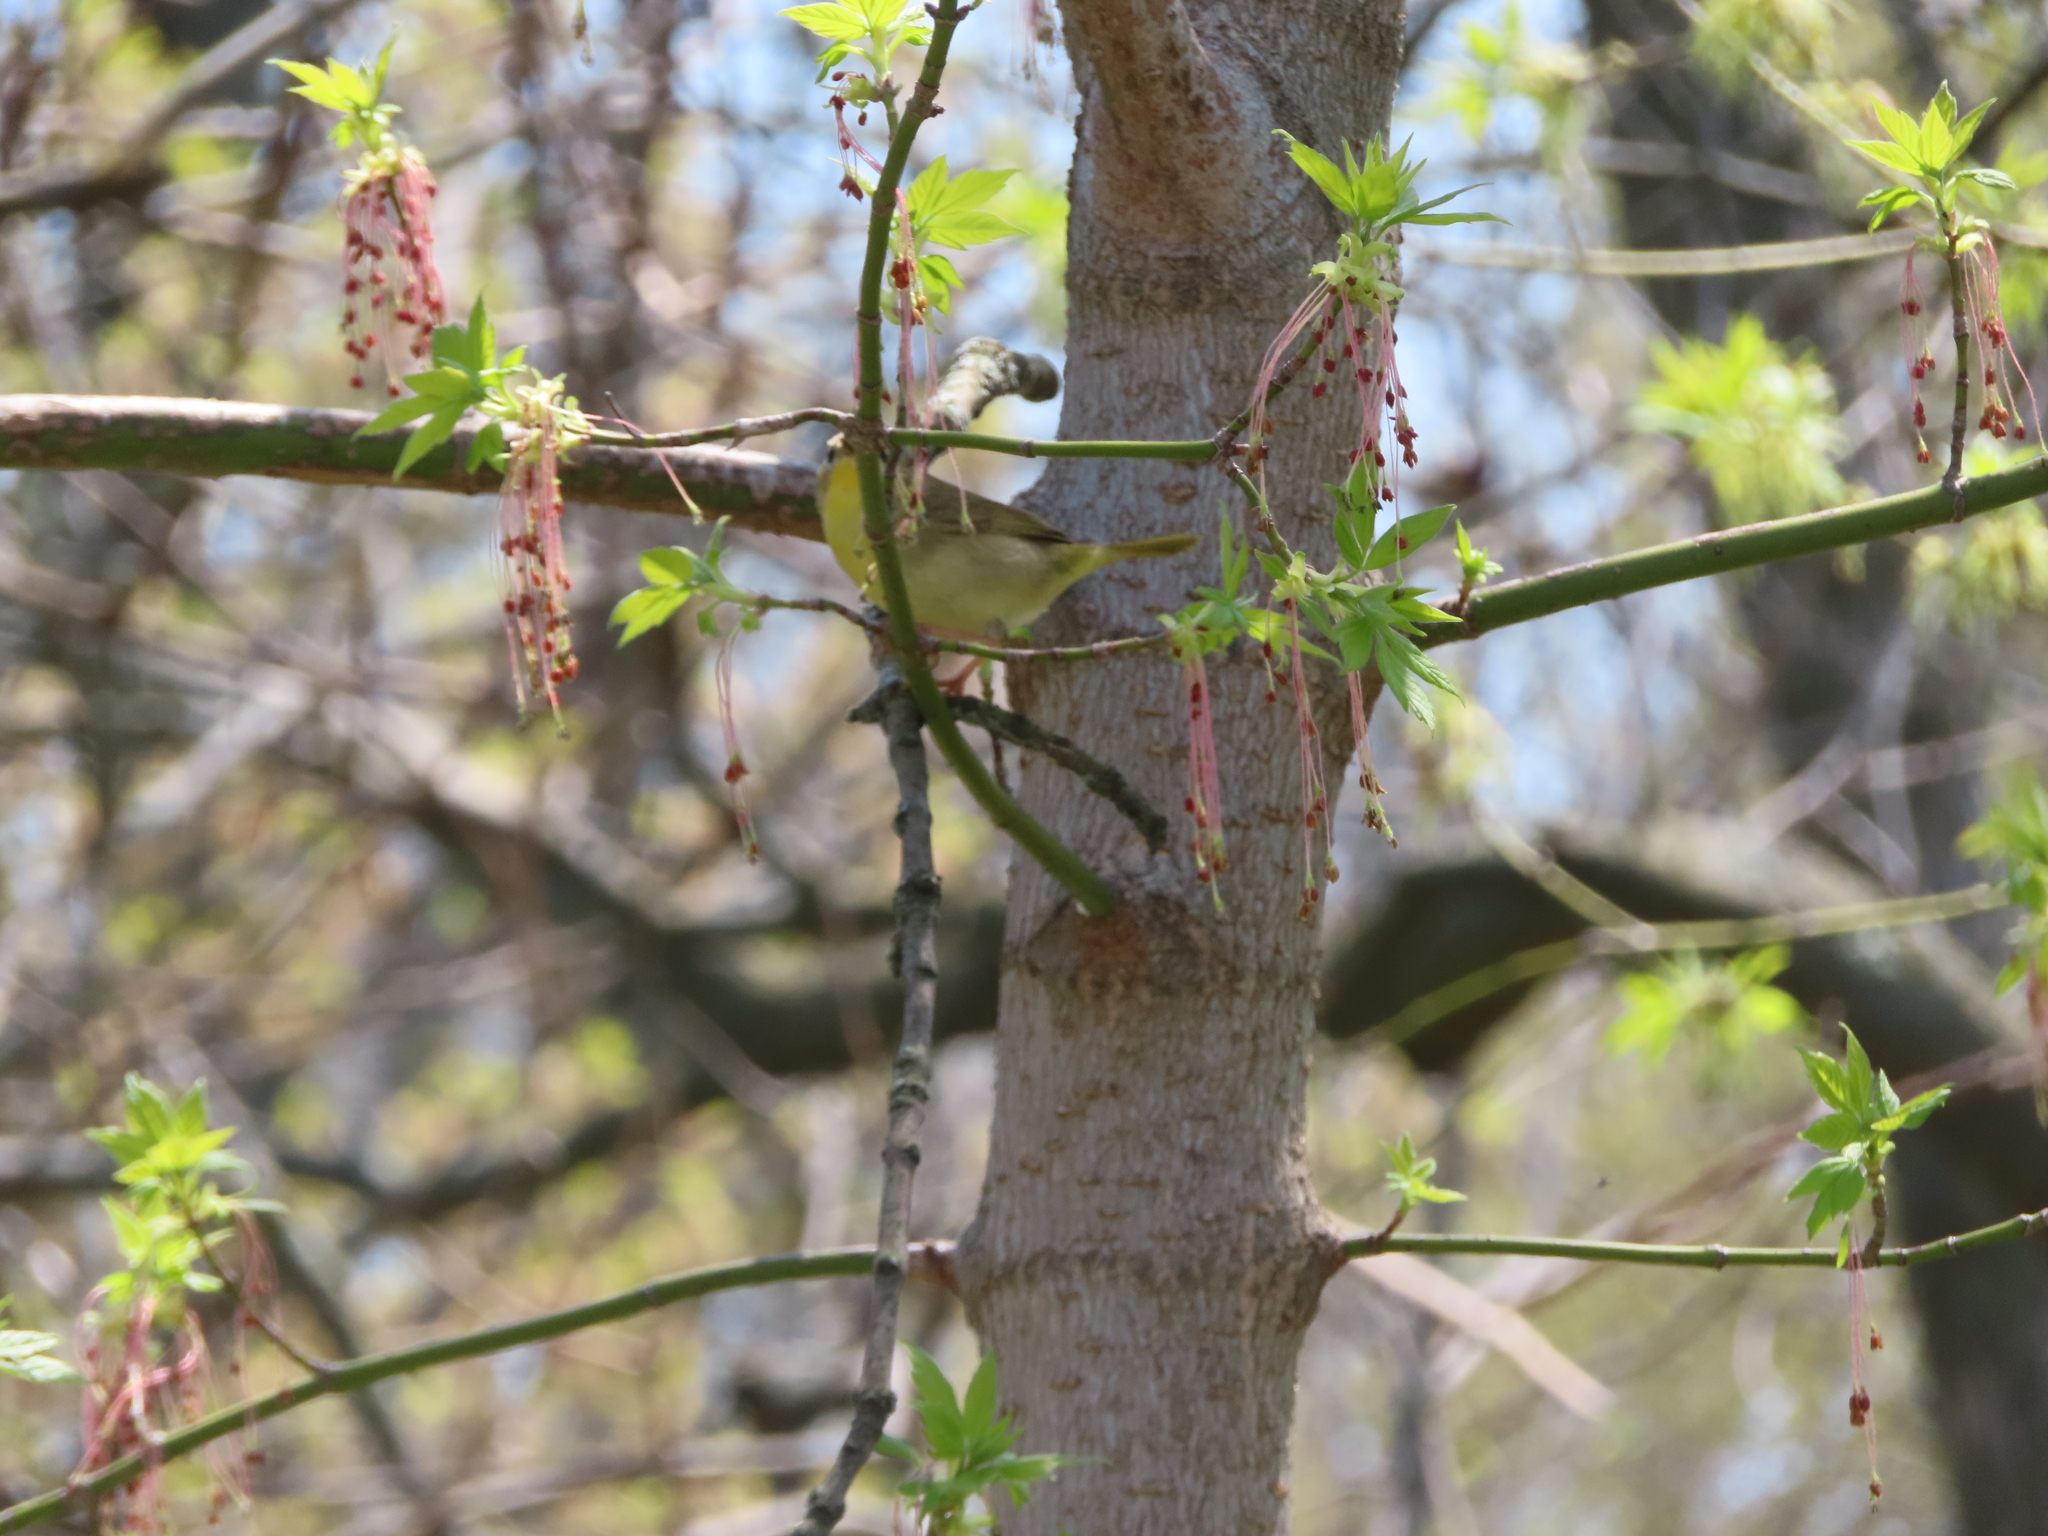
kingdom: Animalia
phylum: Chordata
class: Aves
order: Passeriformes
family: Parulidae
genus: Geothlypis
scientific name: Geothlypis trichas
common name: Common yellowthroat
